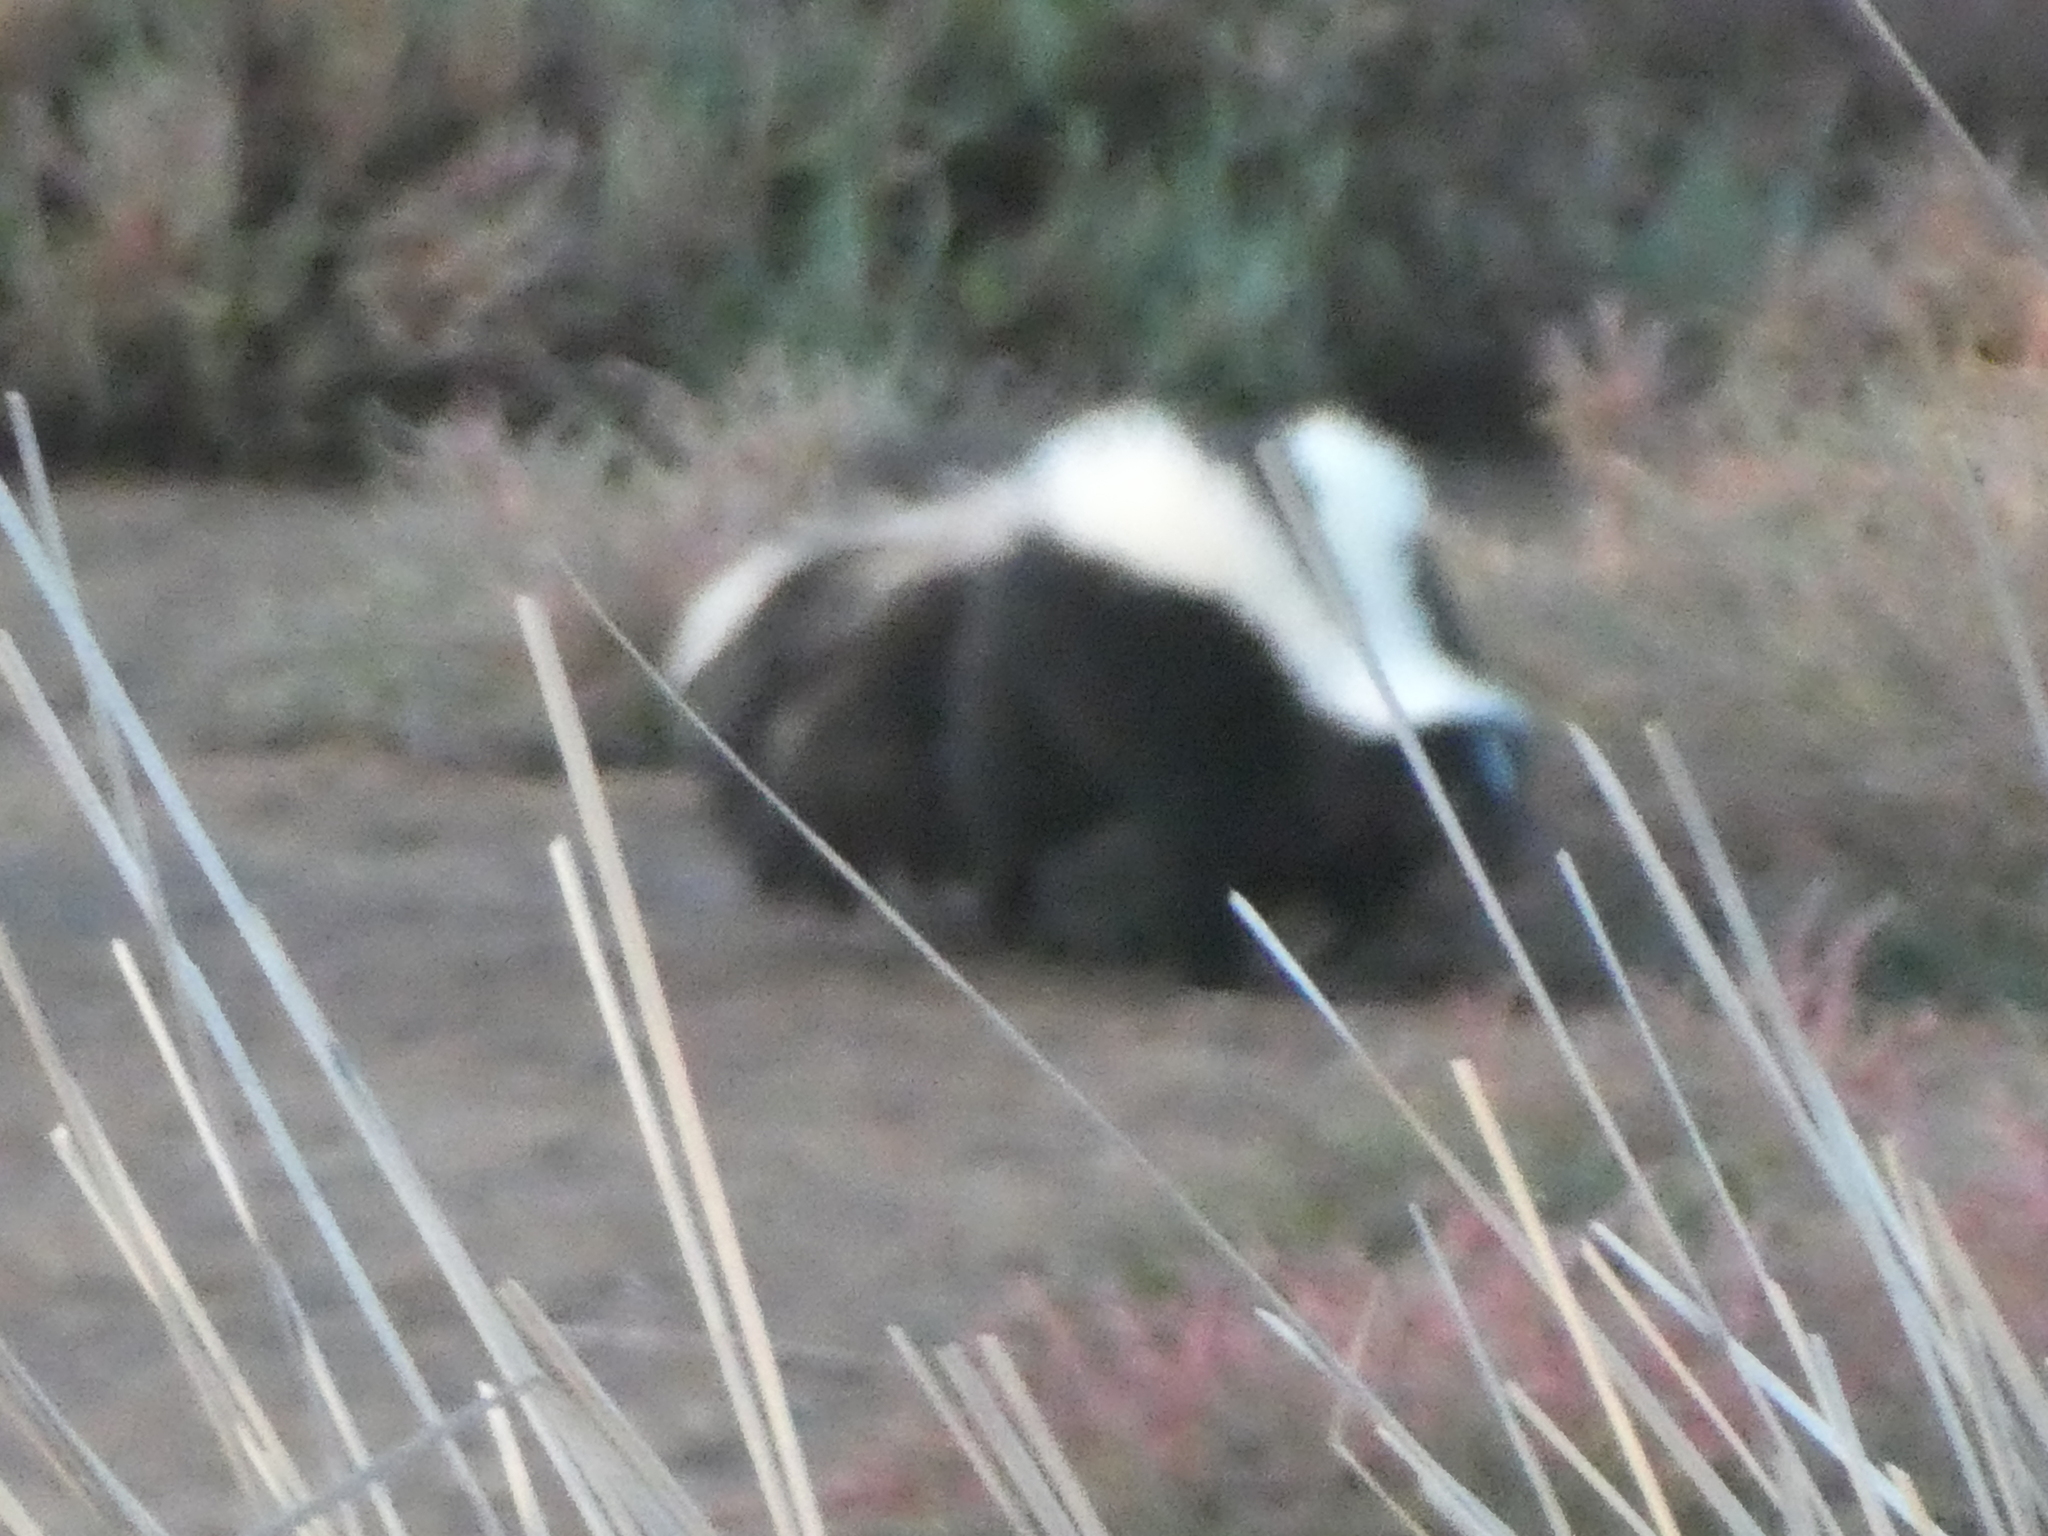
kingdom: Animalia
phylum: Chordata
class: Mammalia
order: Carnivora
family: Mephitidae
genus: Mephitis
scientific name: Mephitis mephitis
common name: Striped skunk
